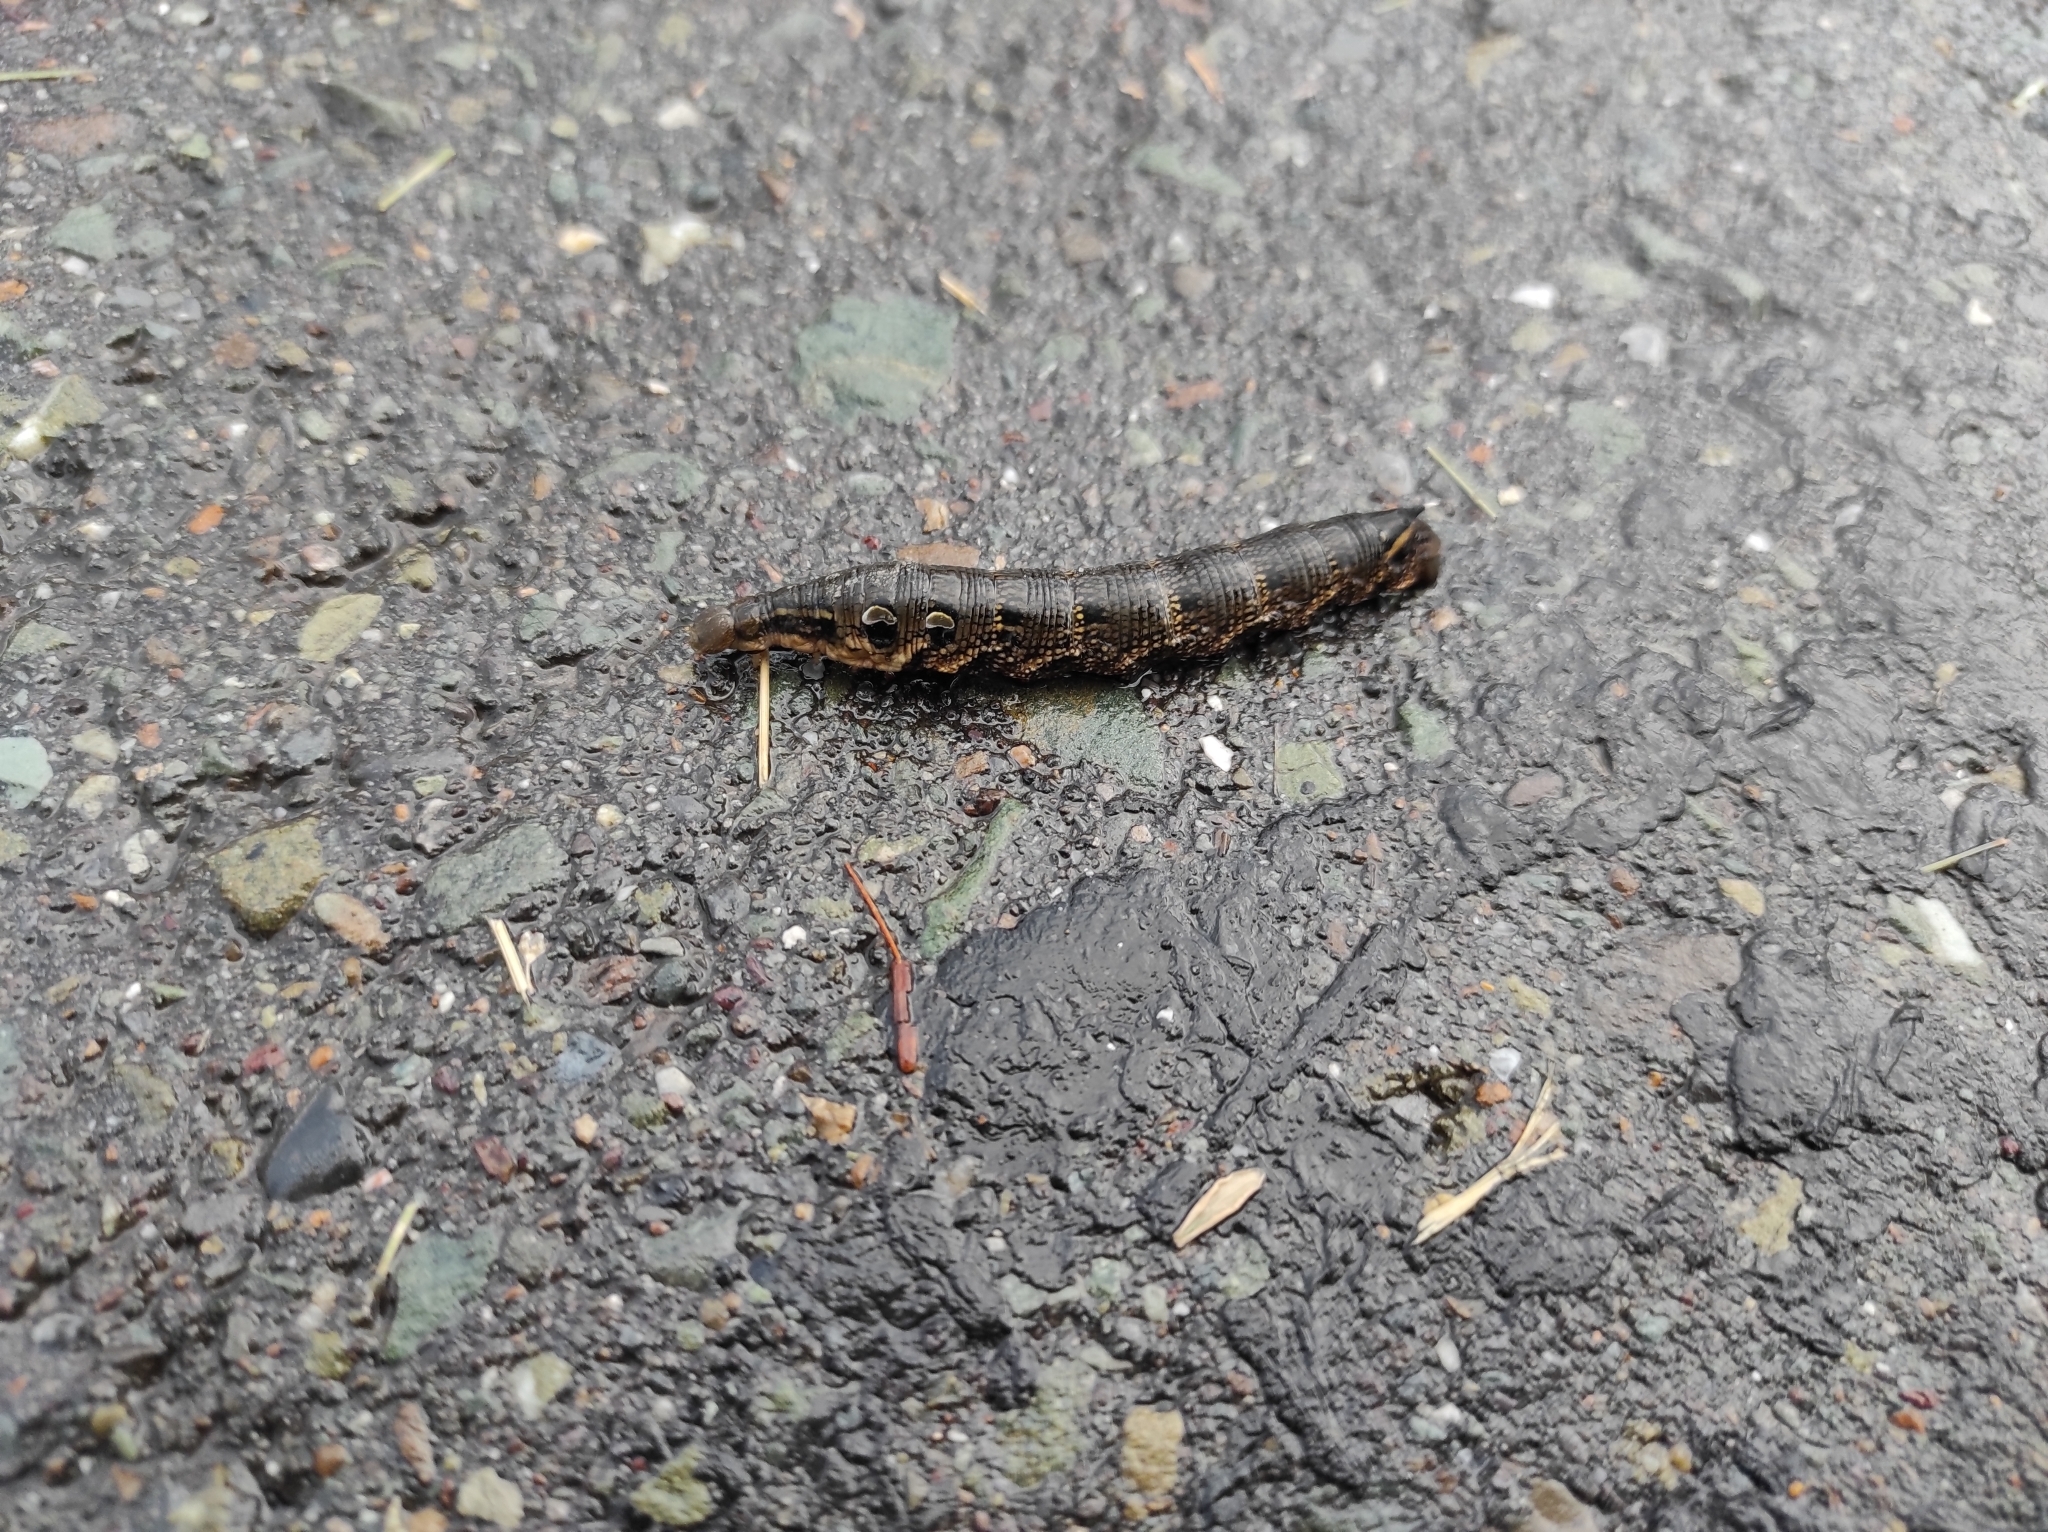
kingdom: Animalia
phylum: Arthropoda
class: Insecta
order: Lepidoptera
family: Sphingidae
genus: Deilephila
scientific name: Deilephila elpenor
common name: Elephant hawk-moth
